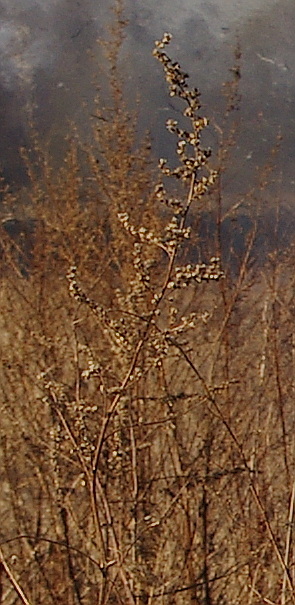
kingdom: Plantae
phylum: Tracheophyta
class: Magnoliopsida
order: Asterales
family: Asteraceae
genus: Artemisia
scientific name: Artemisia vulgaris
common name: Mugwort
